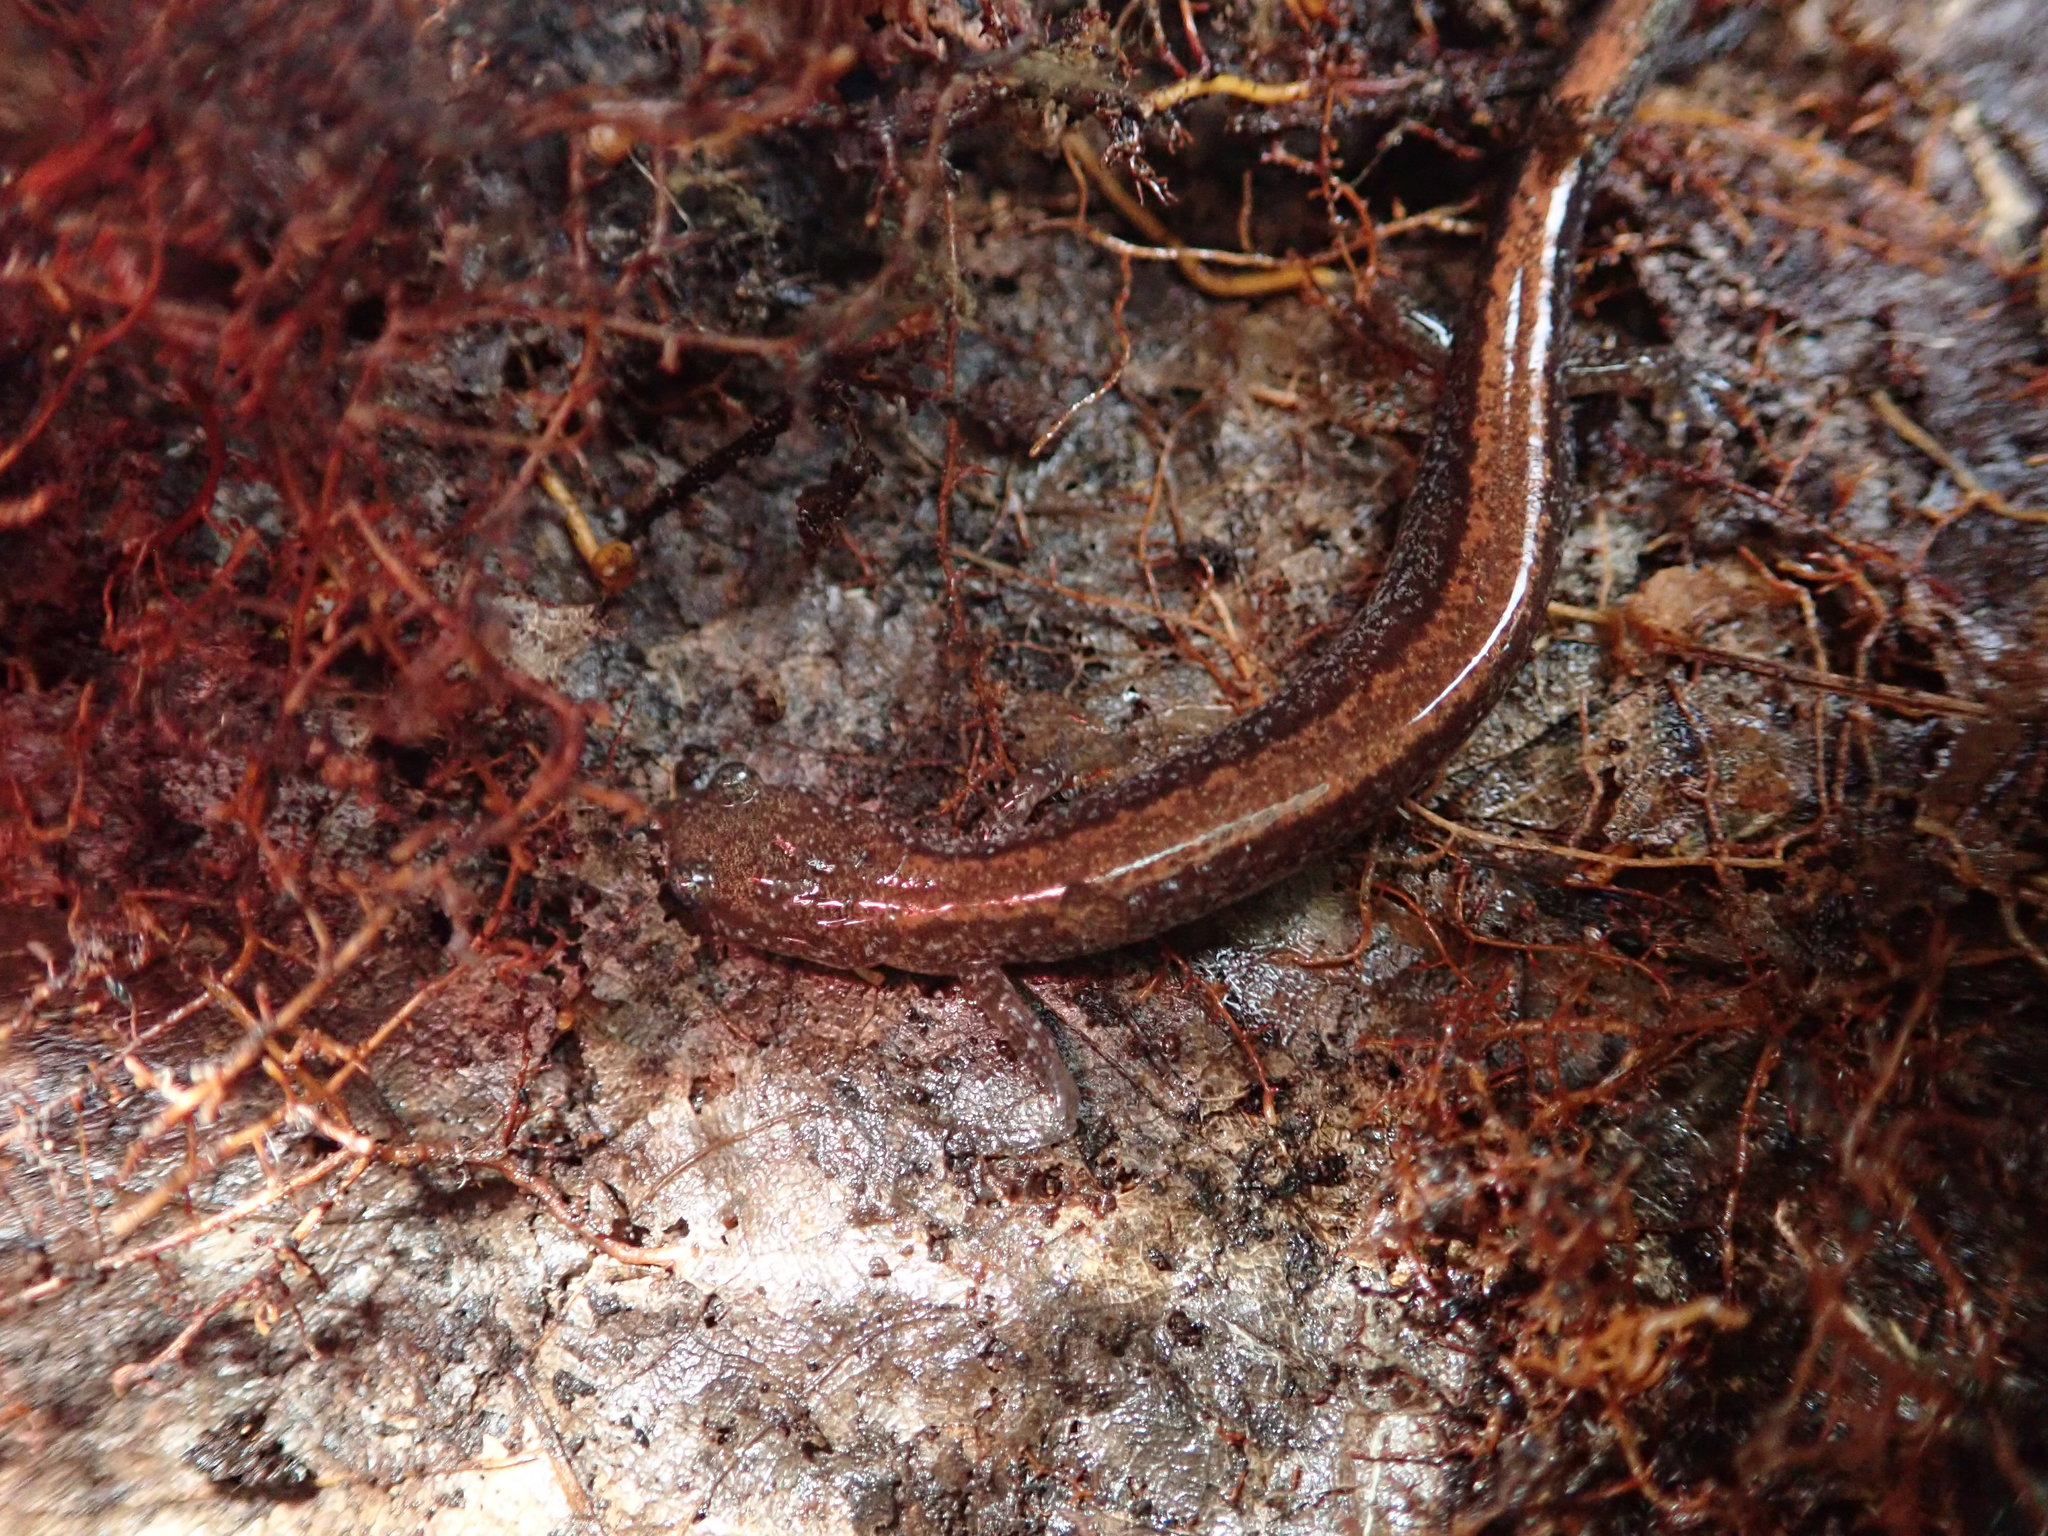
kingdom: Animalia
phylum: Chordata
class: Amphibia
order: Caudata
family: Plethodontidae
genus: Plethodon
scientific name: Plethodon cinereus
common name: Redback salamander
